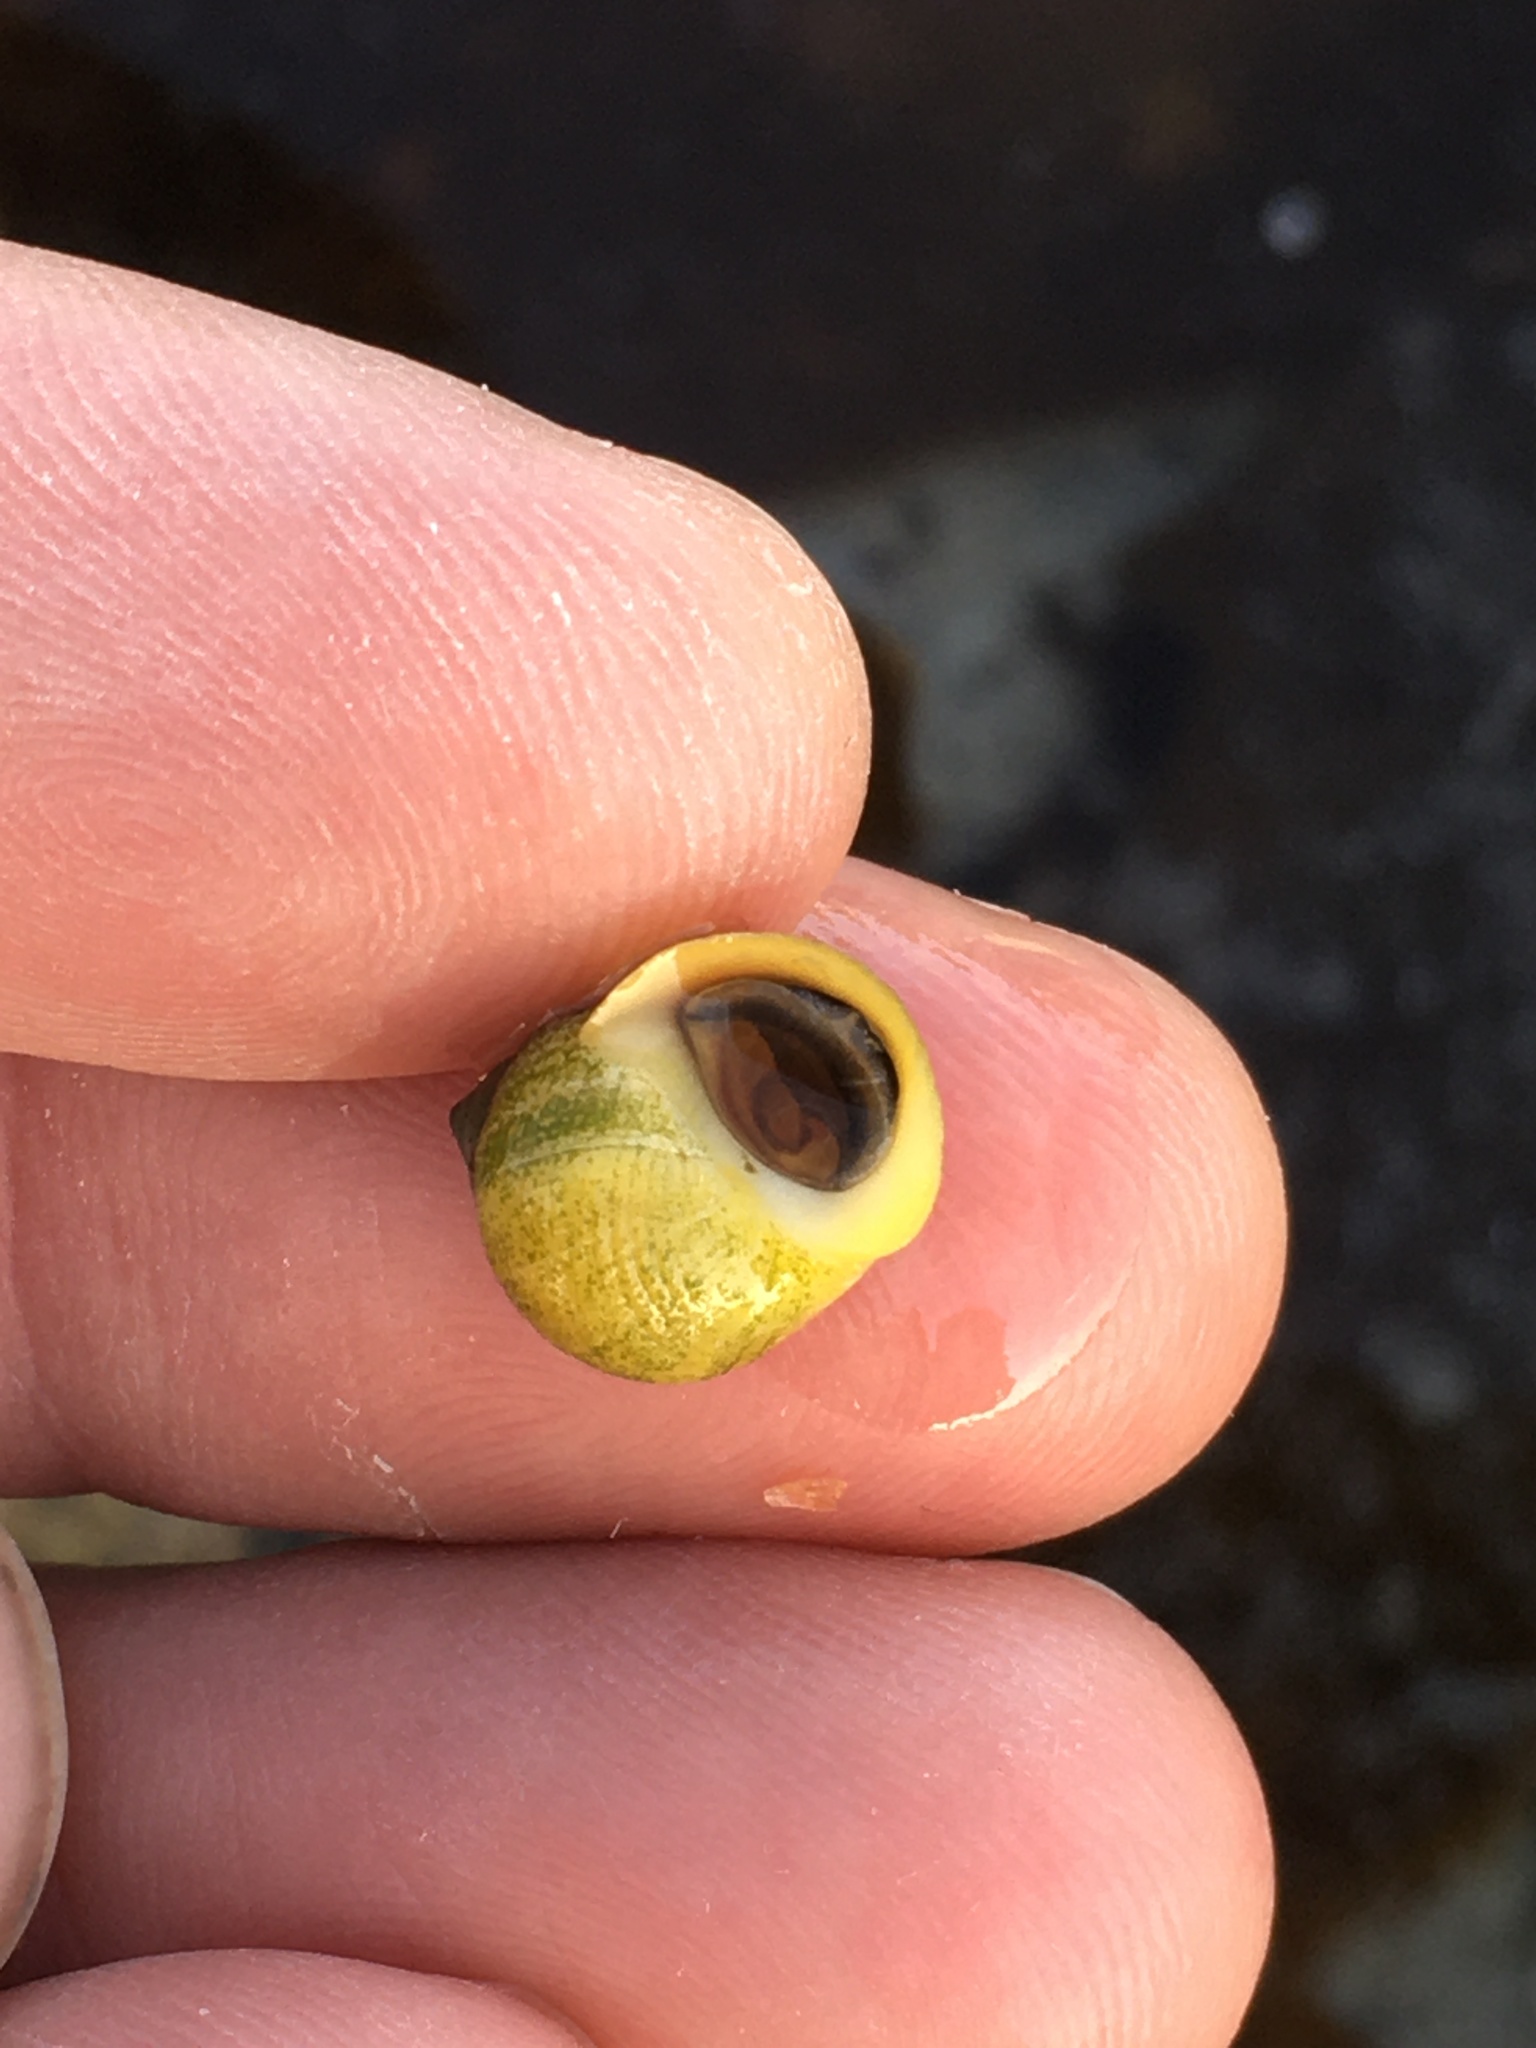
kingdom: Animalia
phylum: Mollusca
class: Gastropoda
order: Littorinimorpha
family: Littorinidae
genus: Littorina
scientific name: Littorina saxatilis
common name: Black-lined periwinkle
